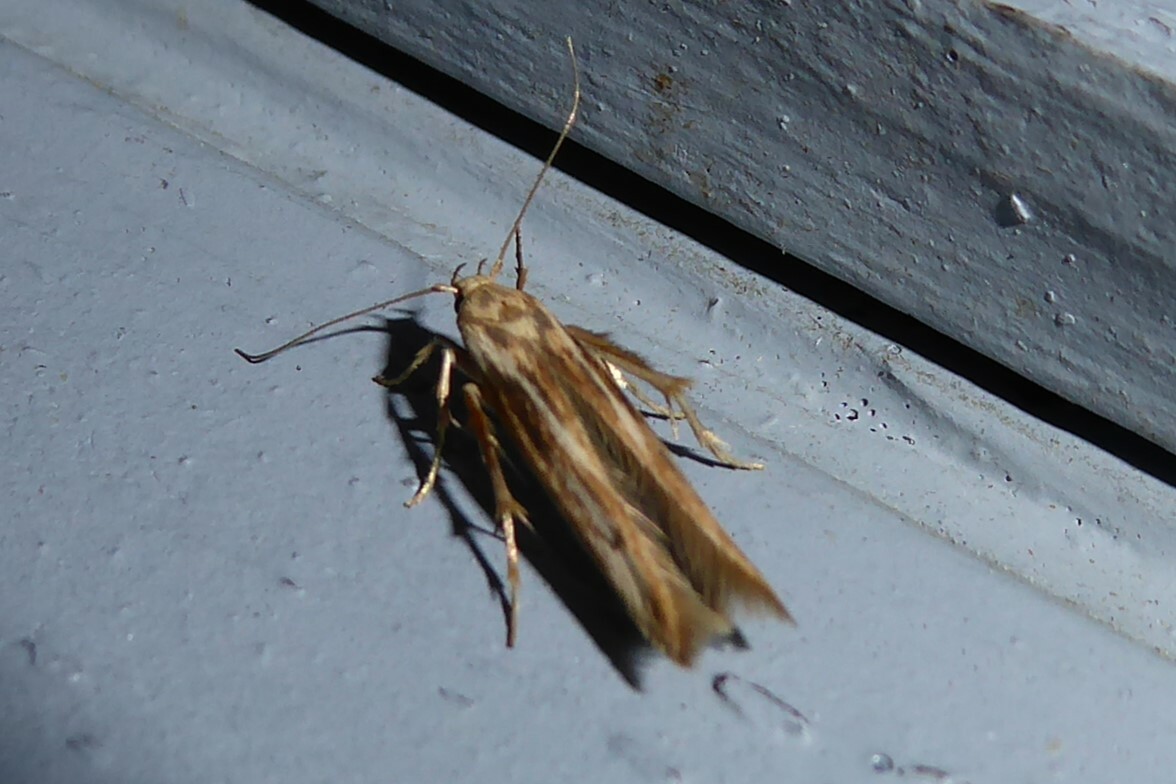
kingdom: Animalia
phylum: Arthropoda
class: Insecta
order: Lepidoptera
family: Stathmopodidae
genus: Stathmopoda
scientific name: Stathmopoda aposema
